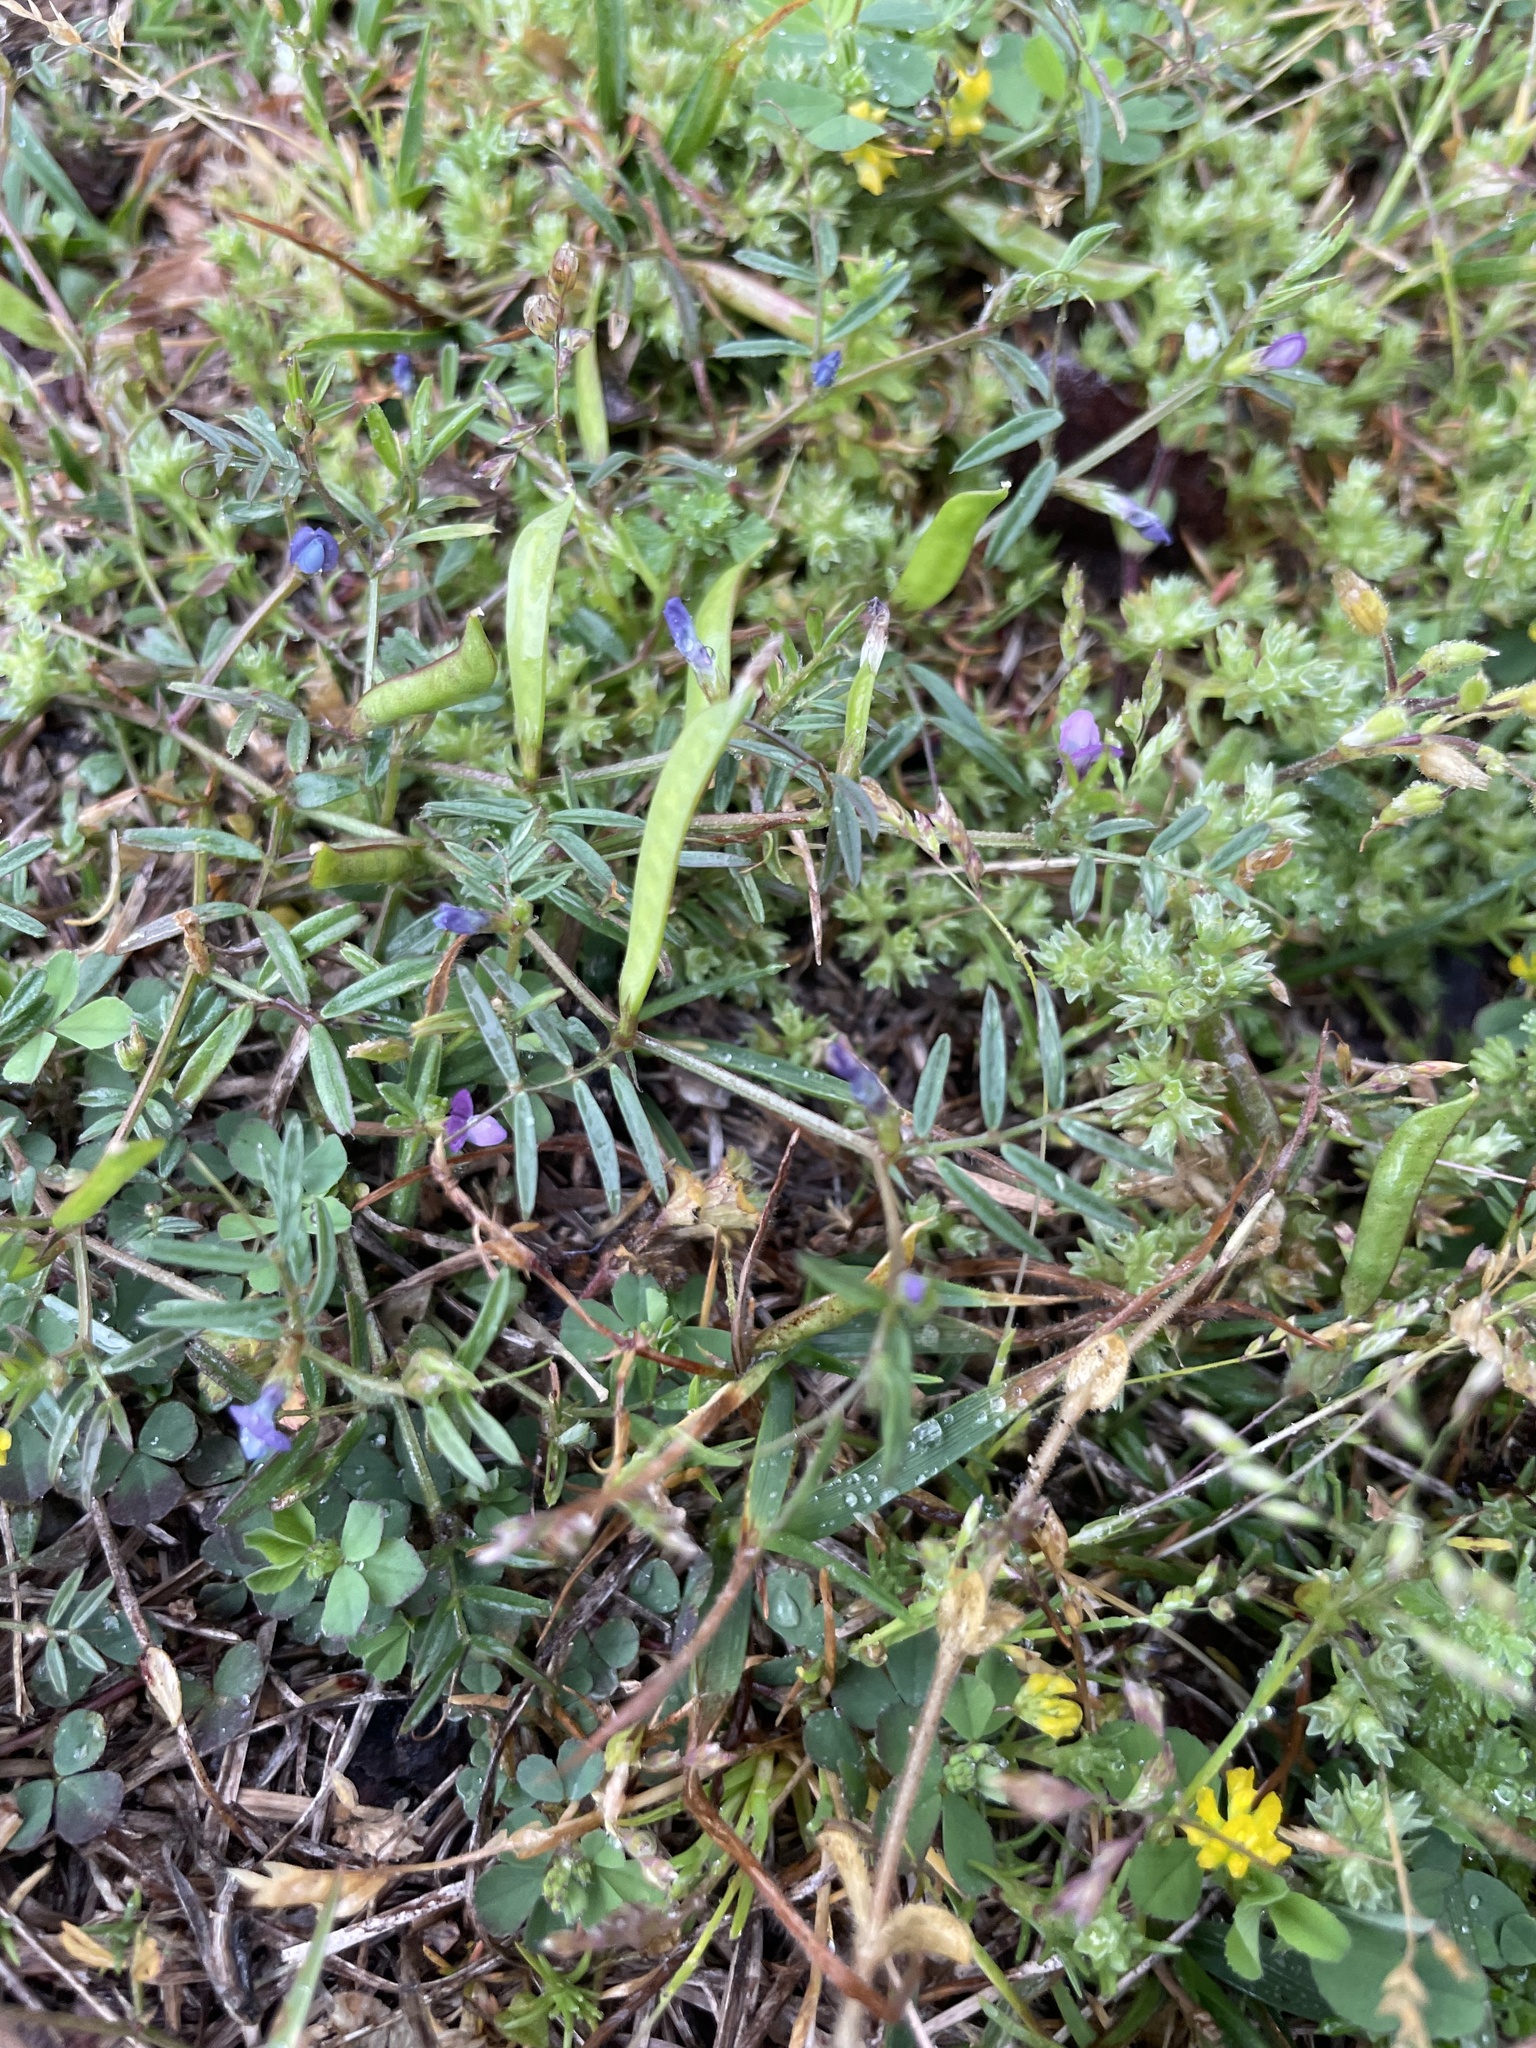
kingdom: Plantae
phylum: Tracheophyta
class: Magnoliopsida
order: Fabales
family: Fabaceae
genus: Vicia
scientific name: Vicia lathyroides
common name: Spring vetch
